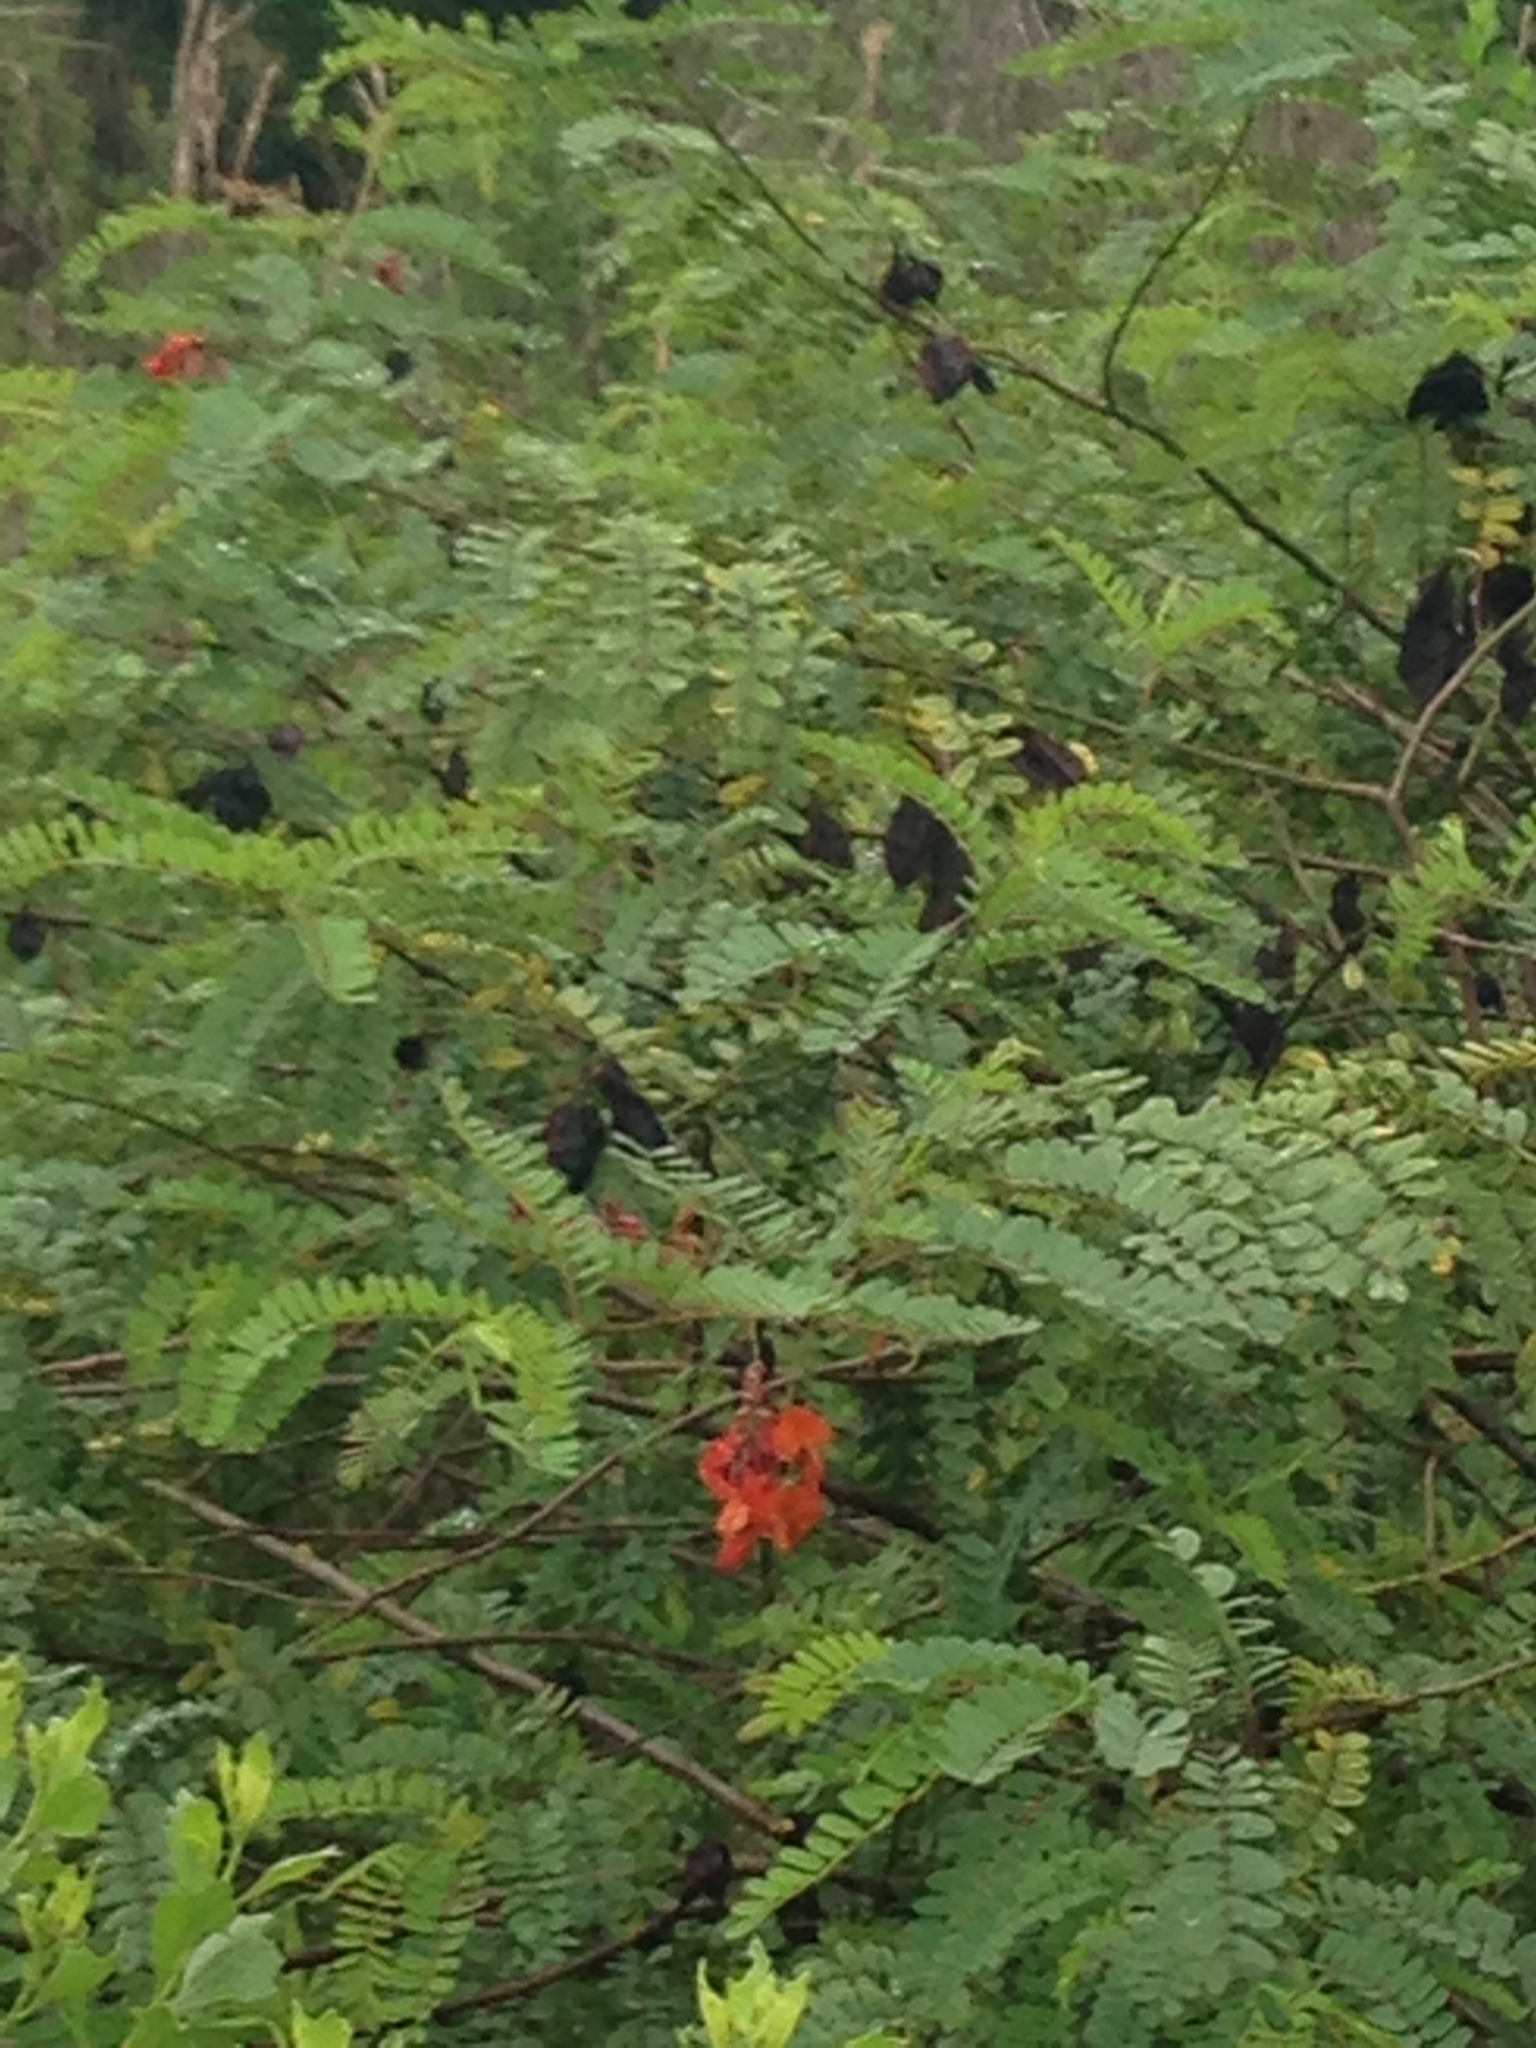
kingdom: Plantae
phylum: Tracheophyta
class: Magnoliopsida
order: Fabales
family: Fabaceae
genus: Sesbania
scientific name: Sesbania punicea
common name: Rattlebox
